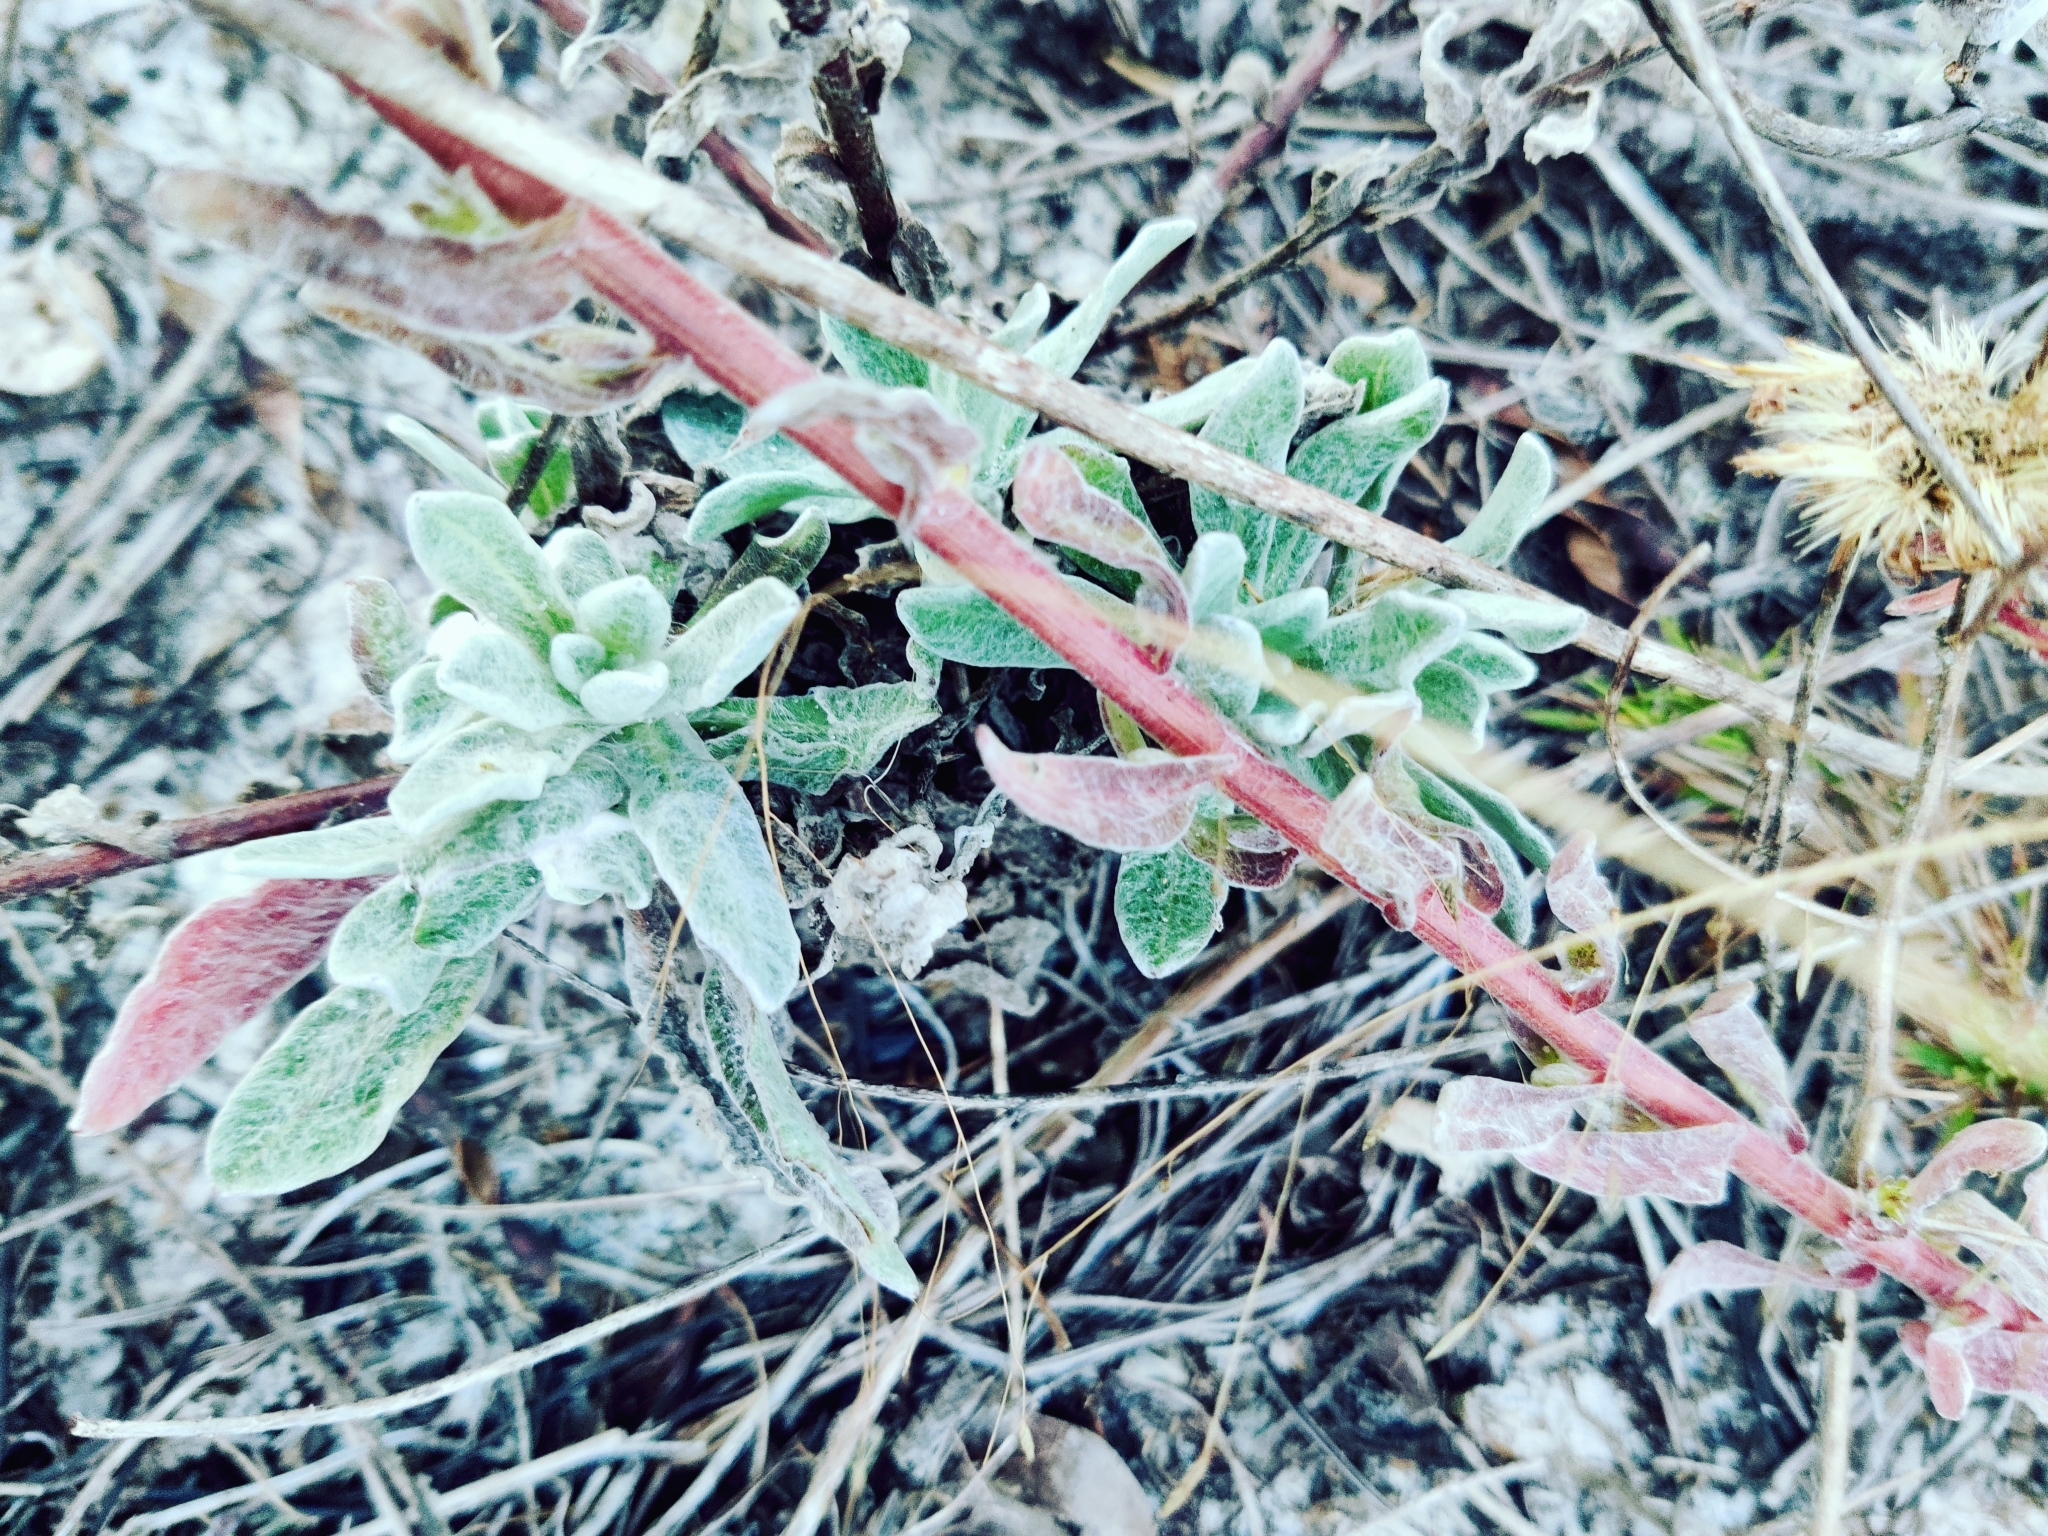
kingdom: Plantae
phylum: Tracheophyta
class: Magnoliopsida
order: Asterales
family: Asteraceae
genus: Chrysopsis
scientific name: Chrysopsis godfreyi
